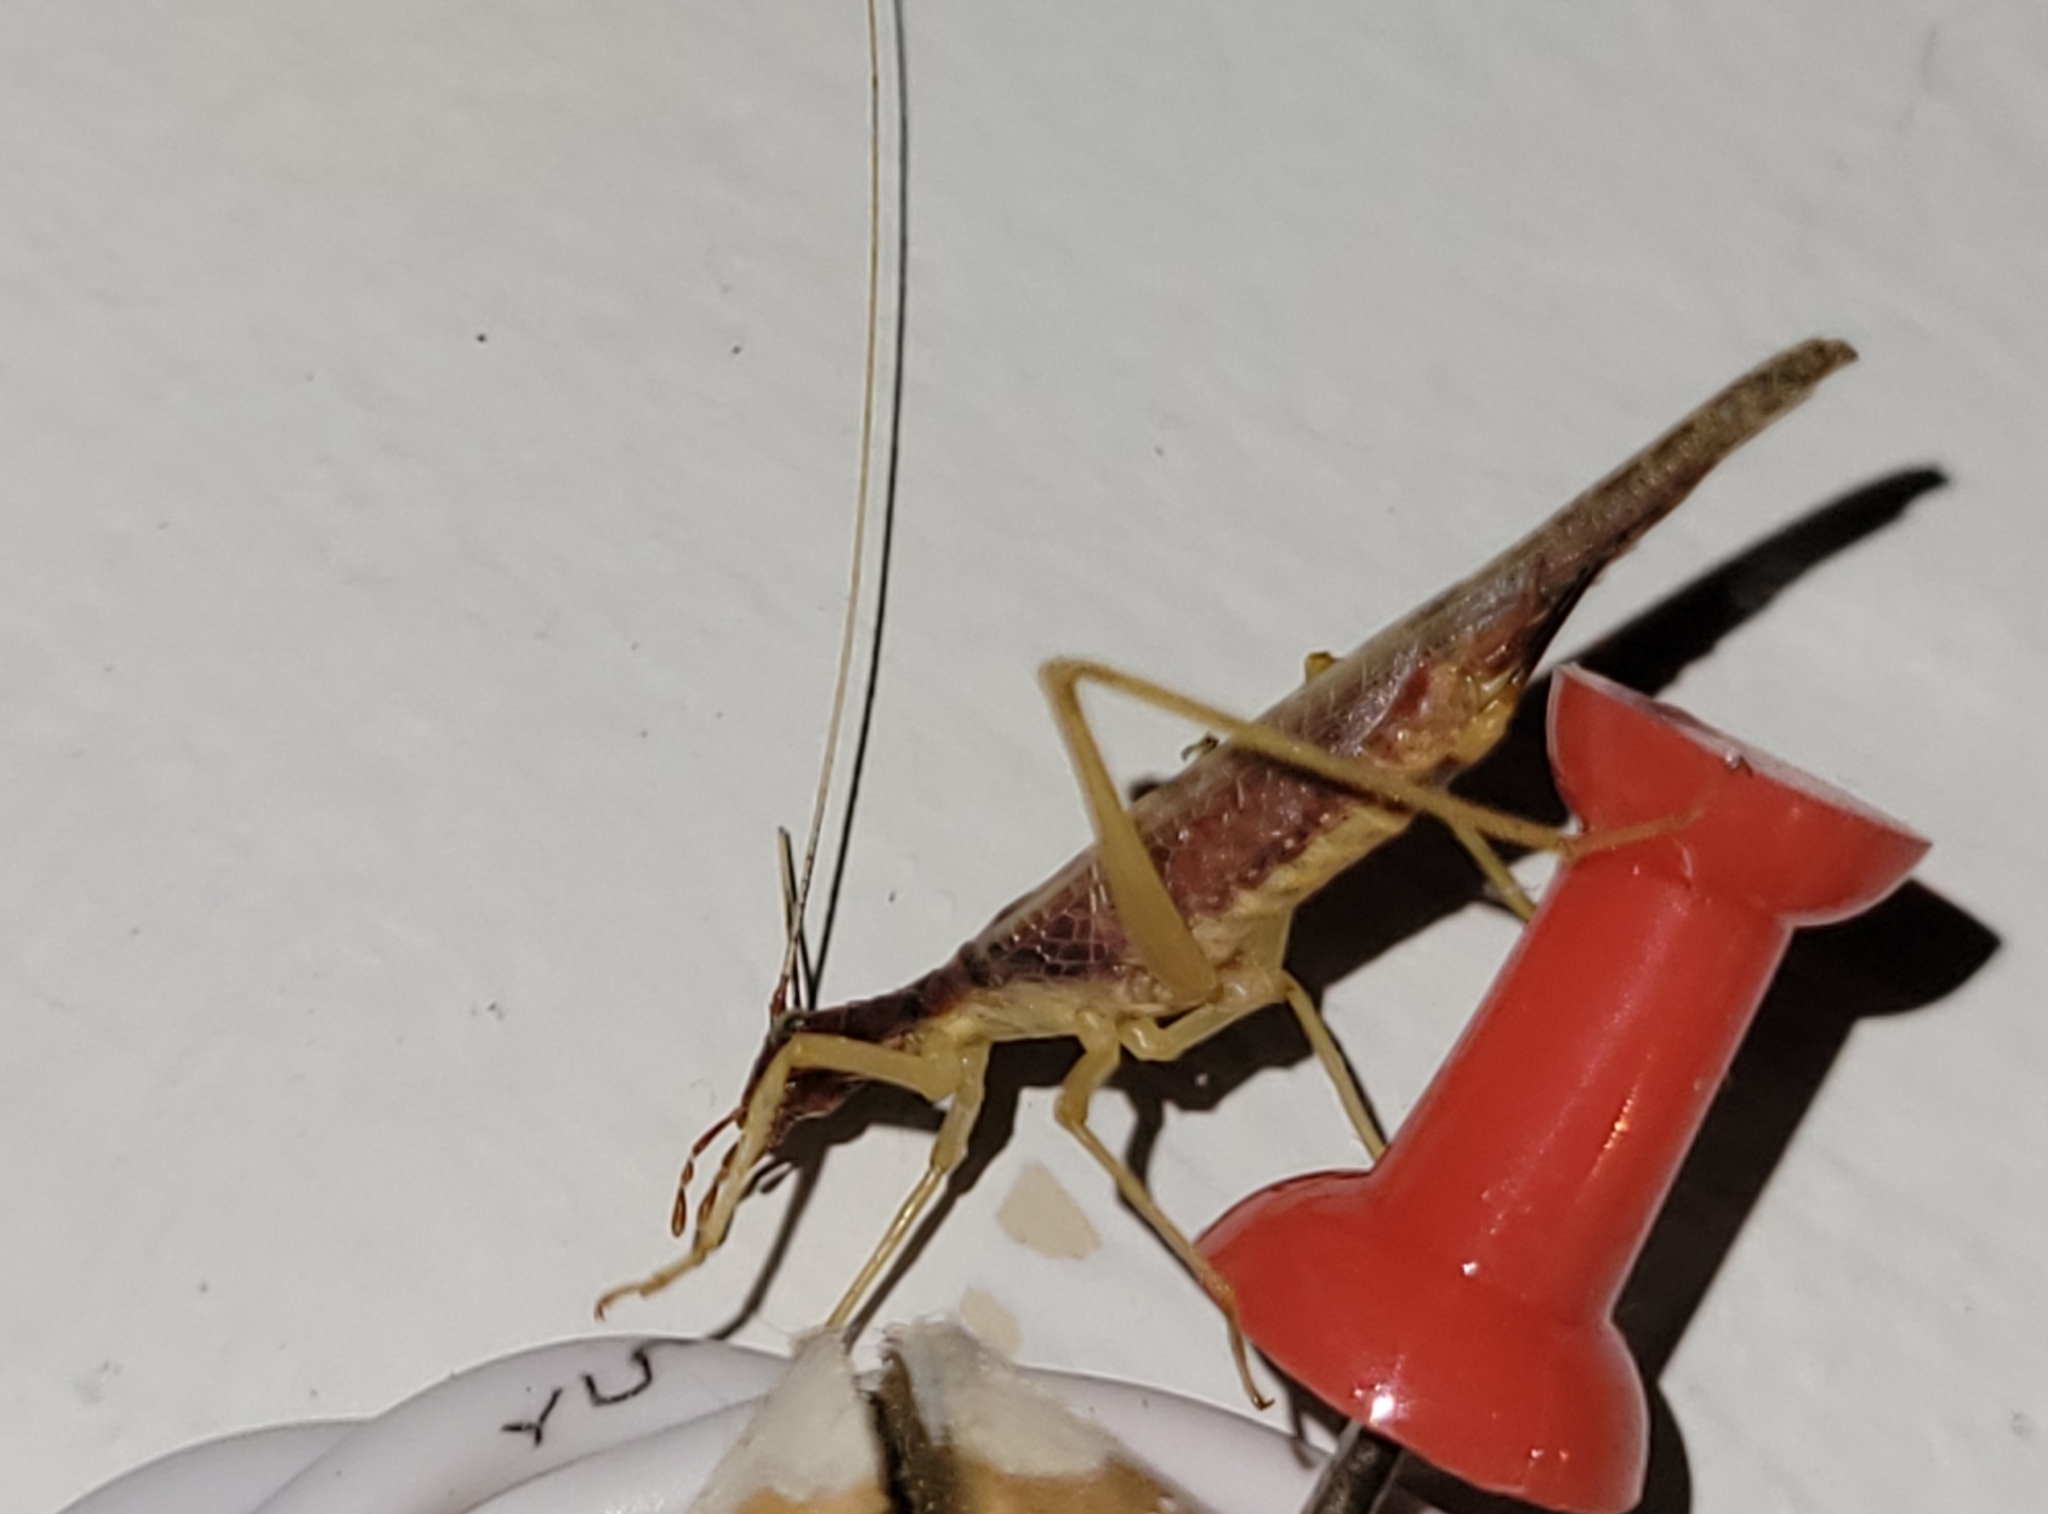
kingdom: Animalia
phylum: Arthropoda
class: Insecta
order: Orthoptera
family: Gryllidae
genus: Neoxabea
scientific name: Neoxabea bipunctata
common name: Two-spotted tree cricket
